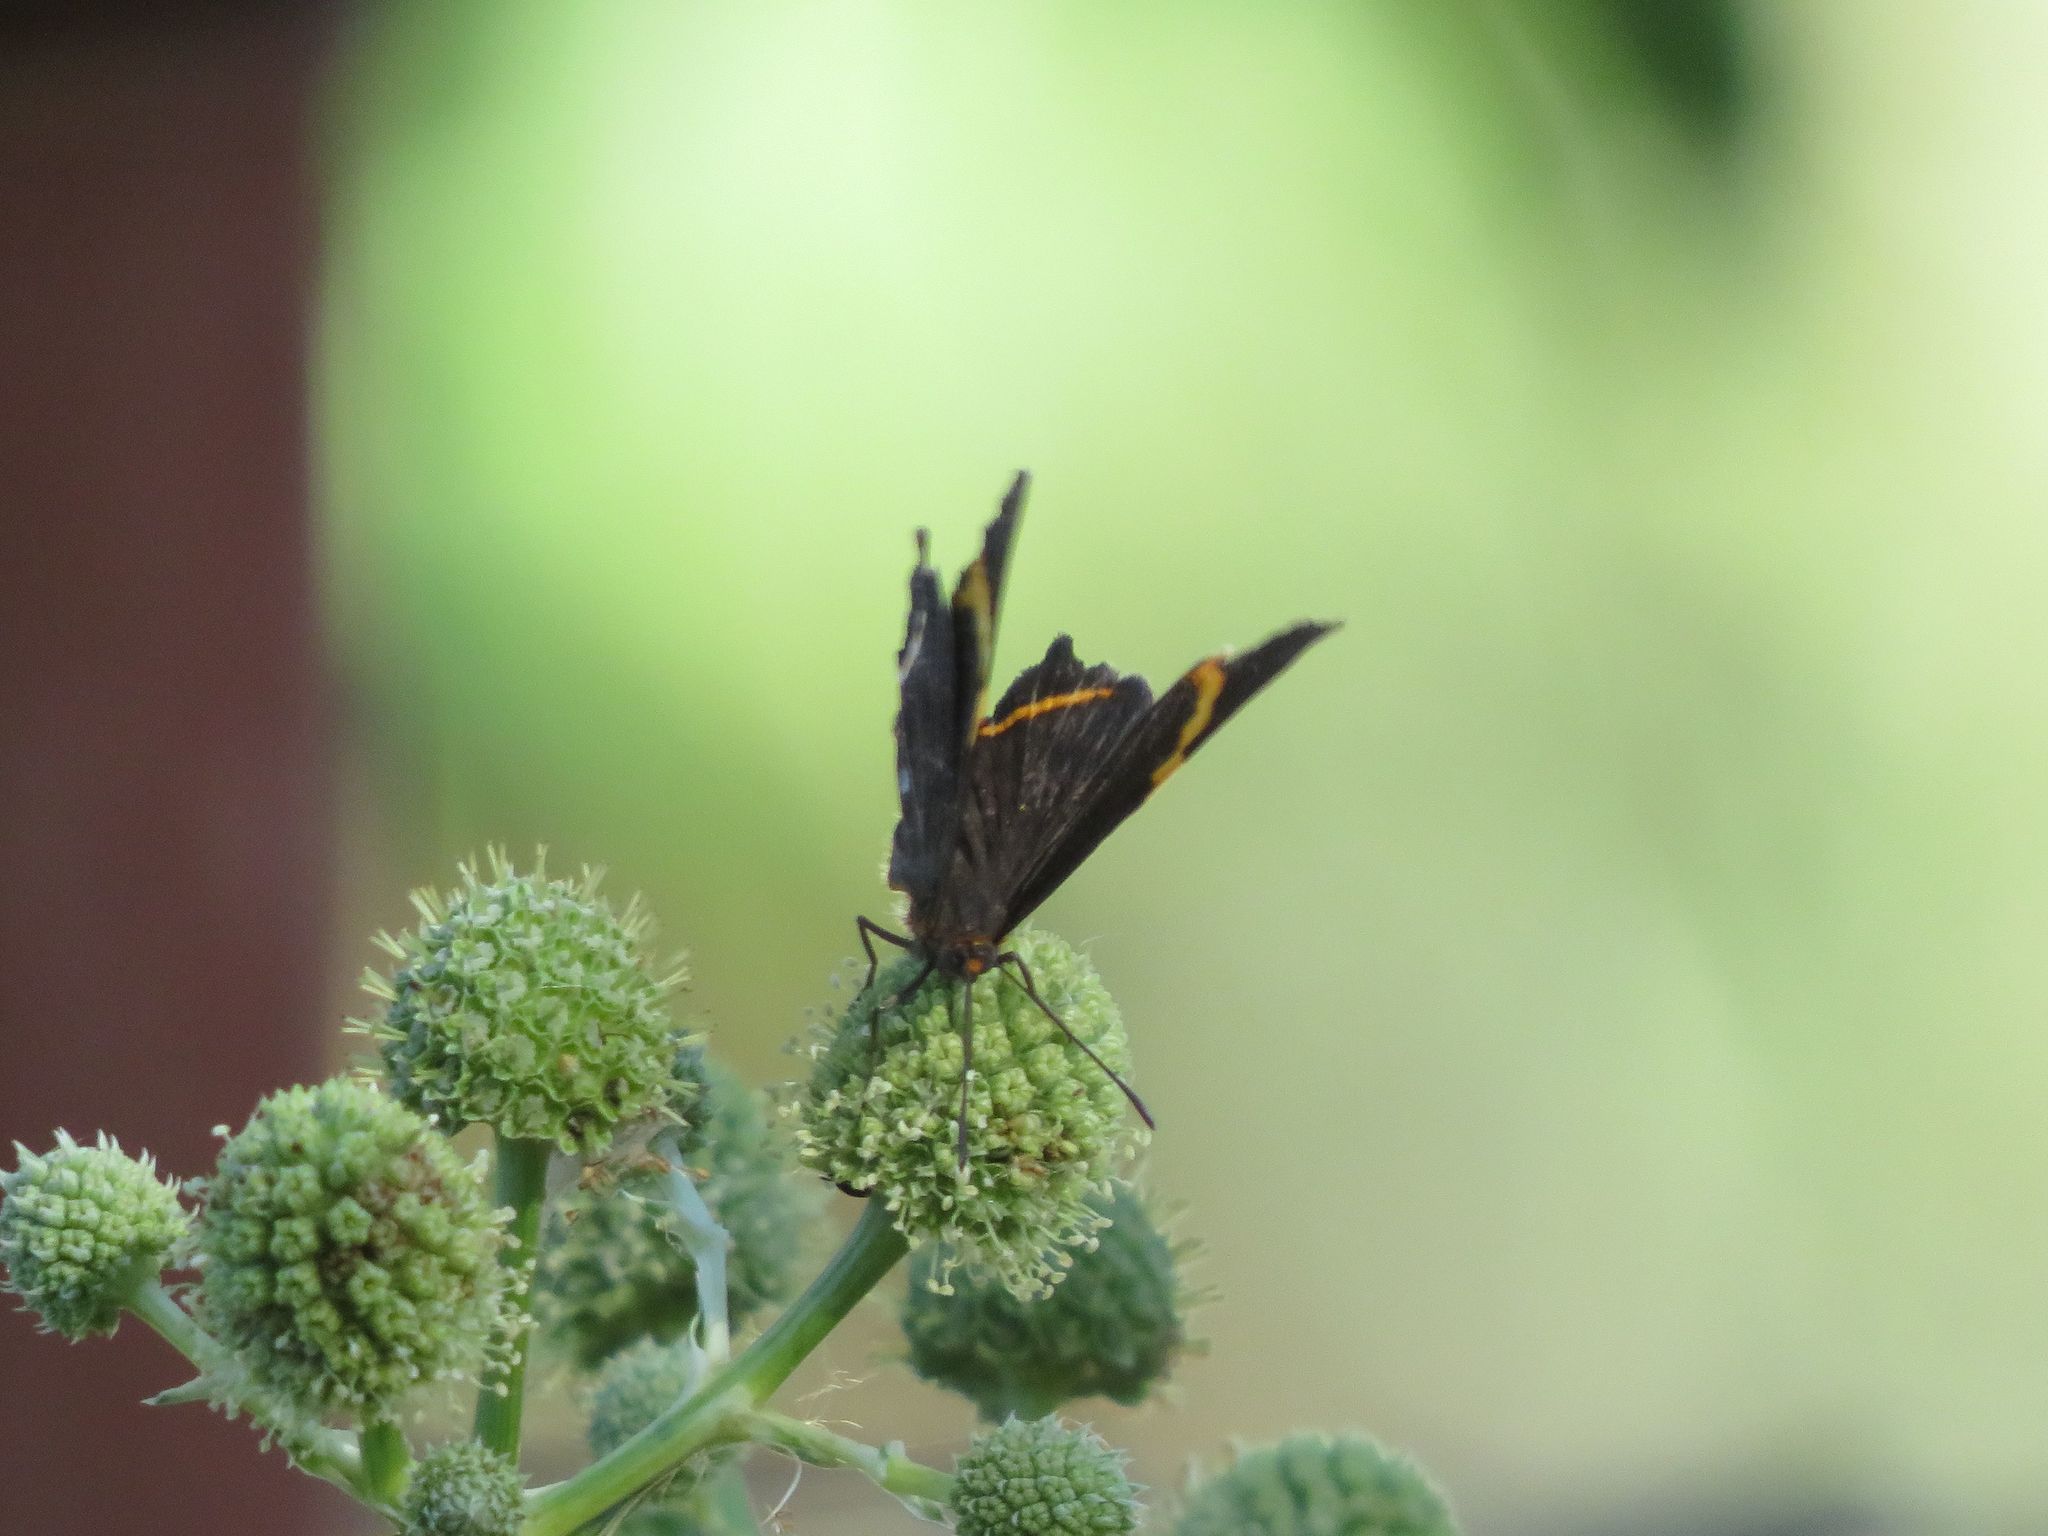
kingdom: Animalia
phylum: Arthropoda
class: Insecta
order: Lepidoptera
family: Riodinidae
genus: Riodina
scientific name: Riodina lysippoides
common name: Little dancer metalmark
